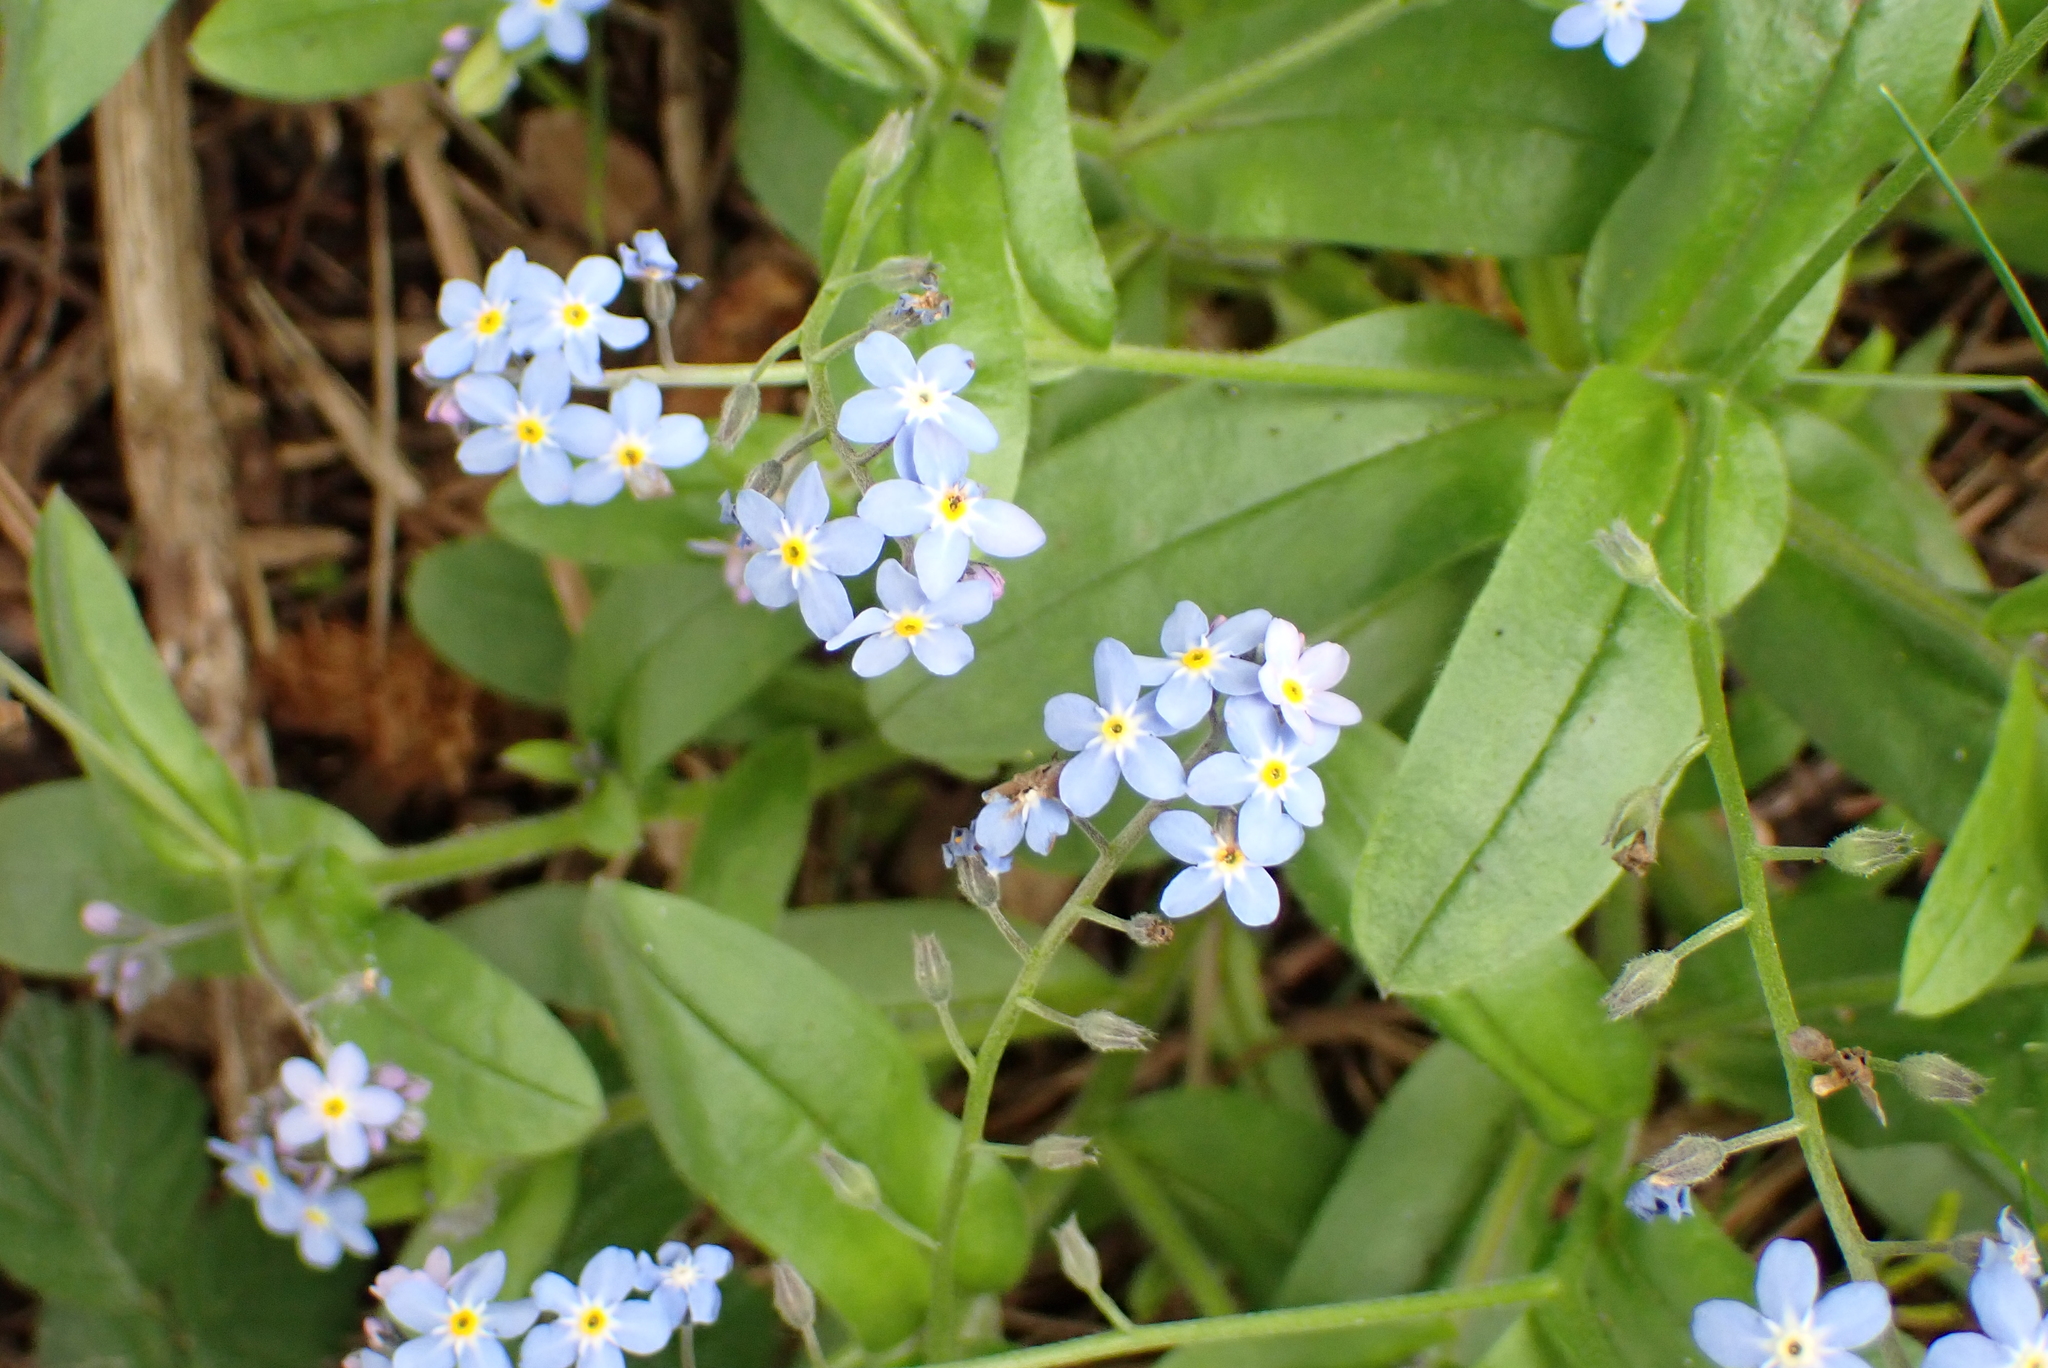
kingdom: Plantae
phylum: Tracheophyta
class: Magnoliopsida
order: Boraginales
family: Boraginaceae
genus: Myosotis
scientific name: Myosotis sylvatica
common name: Wood forget-me-not
